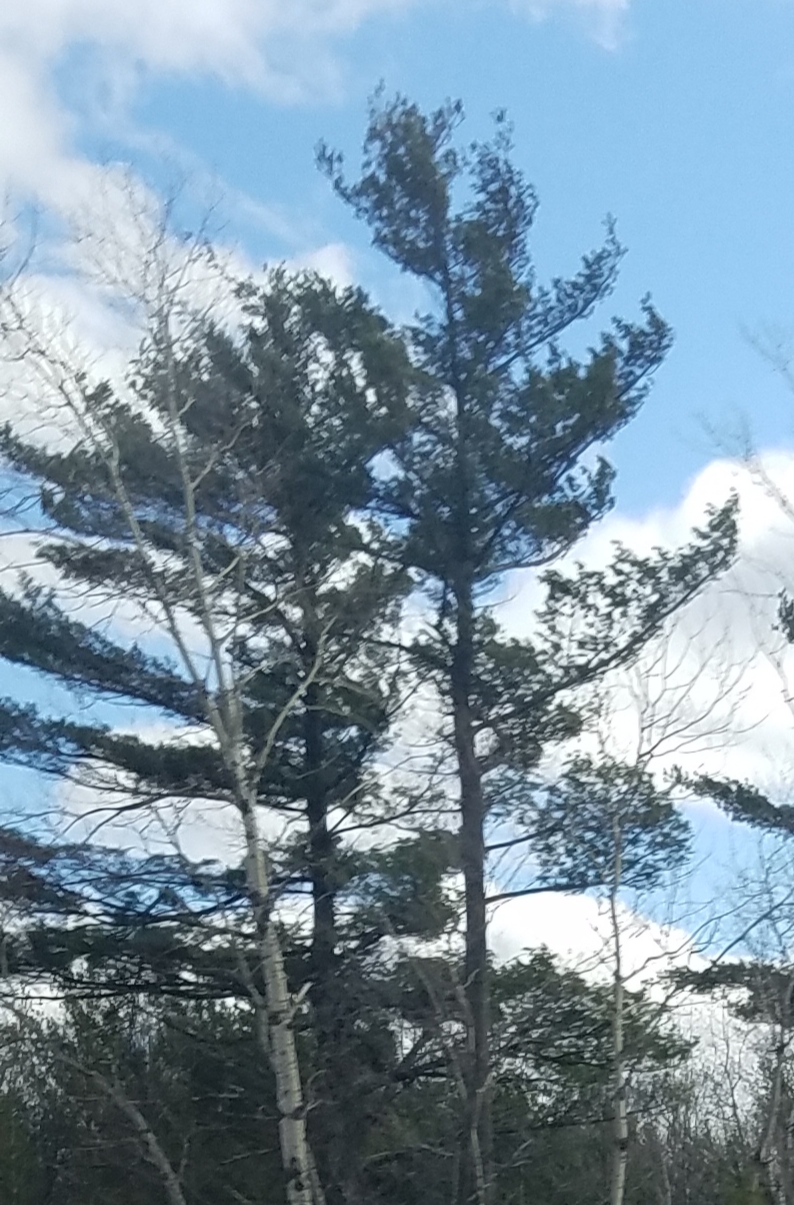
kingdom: Plantae
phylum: Tracheophyta
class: Pinopsida
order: Pinales
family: Pinaceae
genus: Pinus
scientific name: Pinus strobus
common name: Weymouth pine
